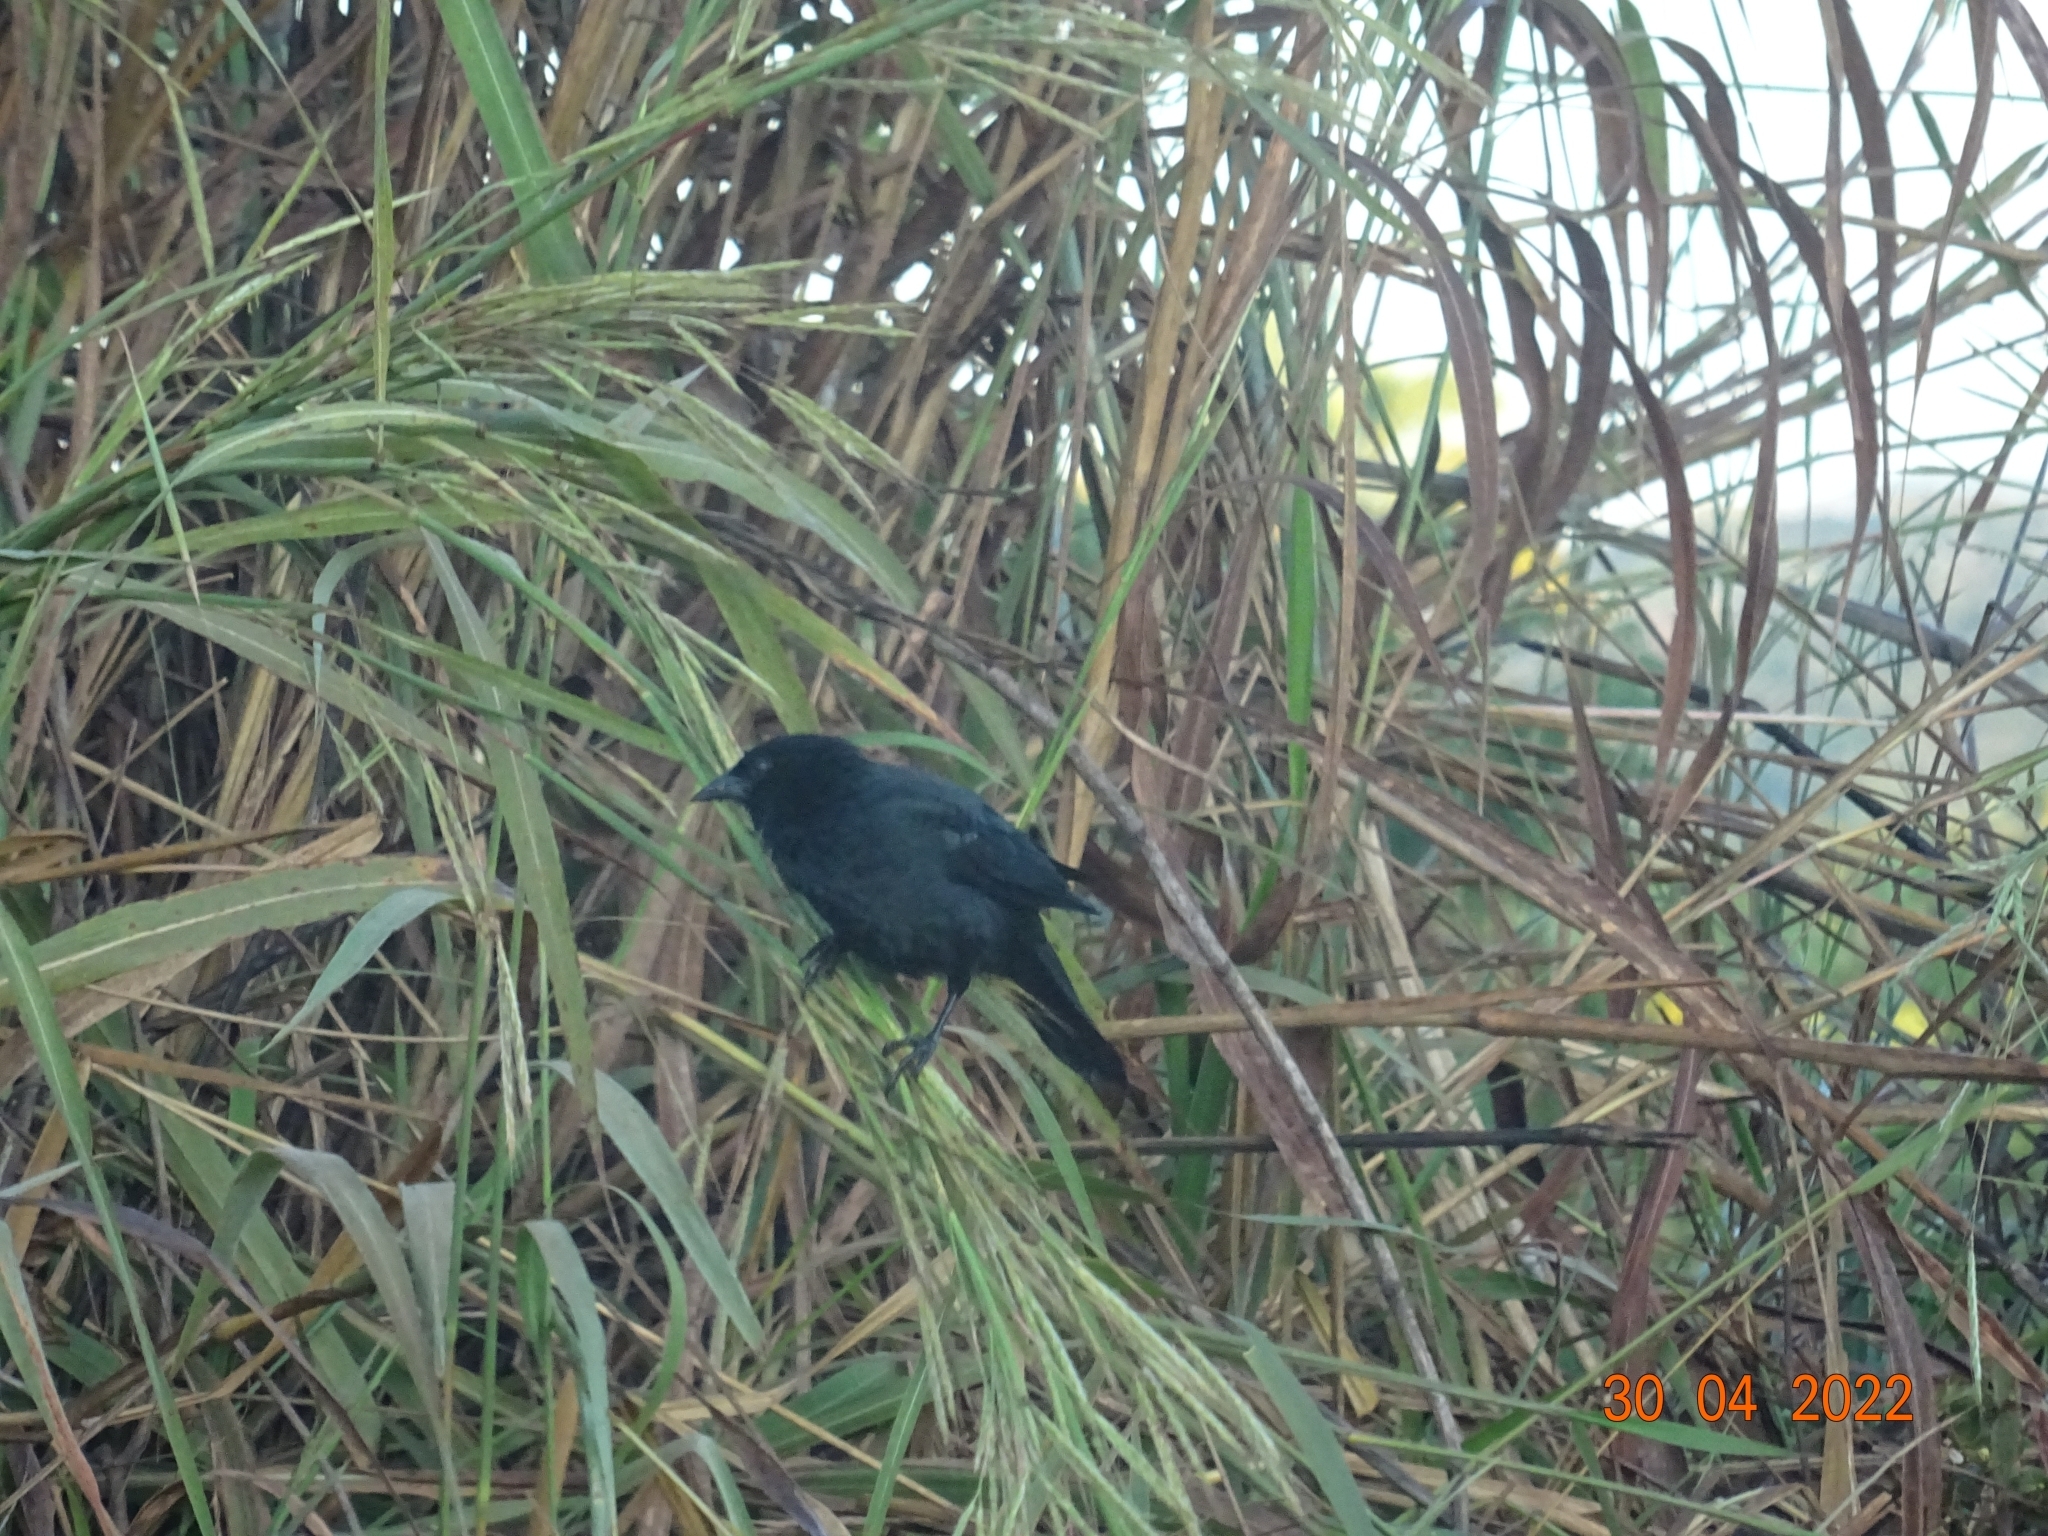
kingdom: Animalia
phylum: Chordata
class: Aves
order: Passeriformes
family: Icteridae
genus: Gnorimopsar
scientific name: Gnorimopsar chopi
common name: Chopi blackbird
